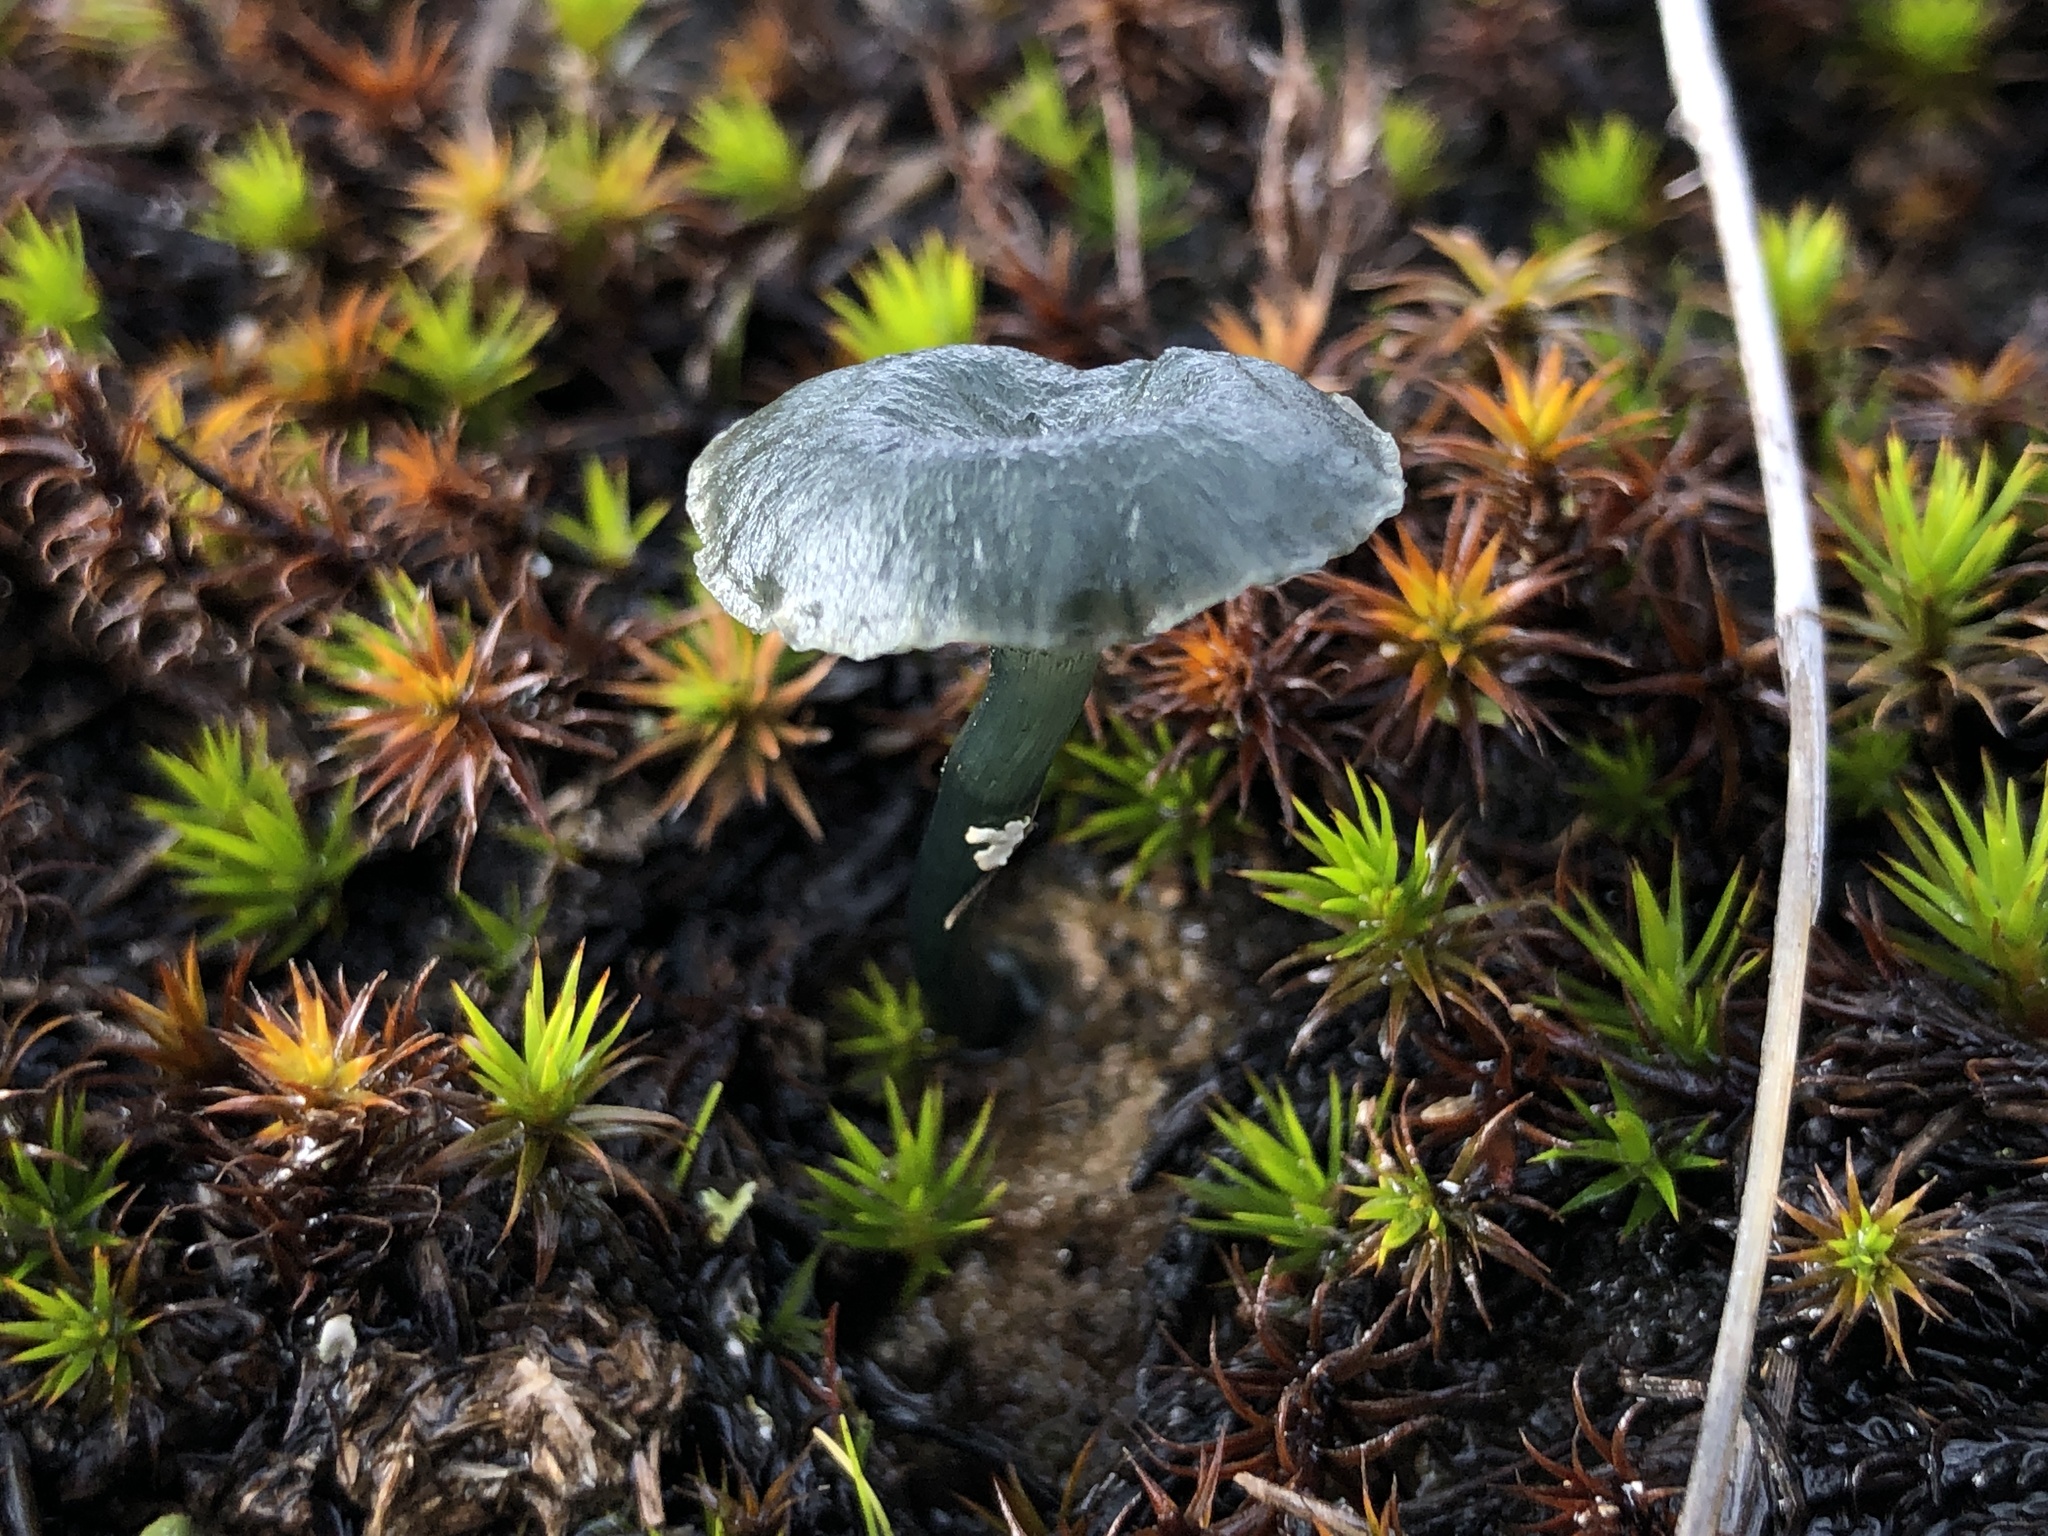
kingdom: Fungi
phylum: Basidiomycota
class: Agaricomycetes
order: Agaricales
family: Hygrophoraceae
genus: Arrhenia
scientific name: Arrhenia chlorocyanea
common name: Verdigris navel
